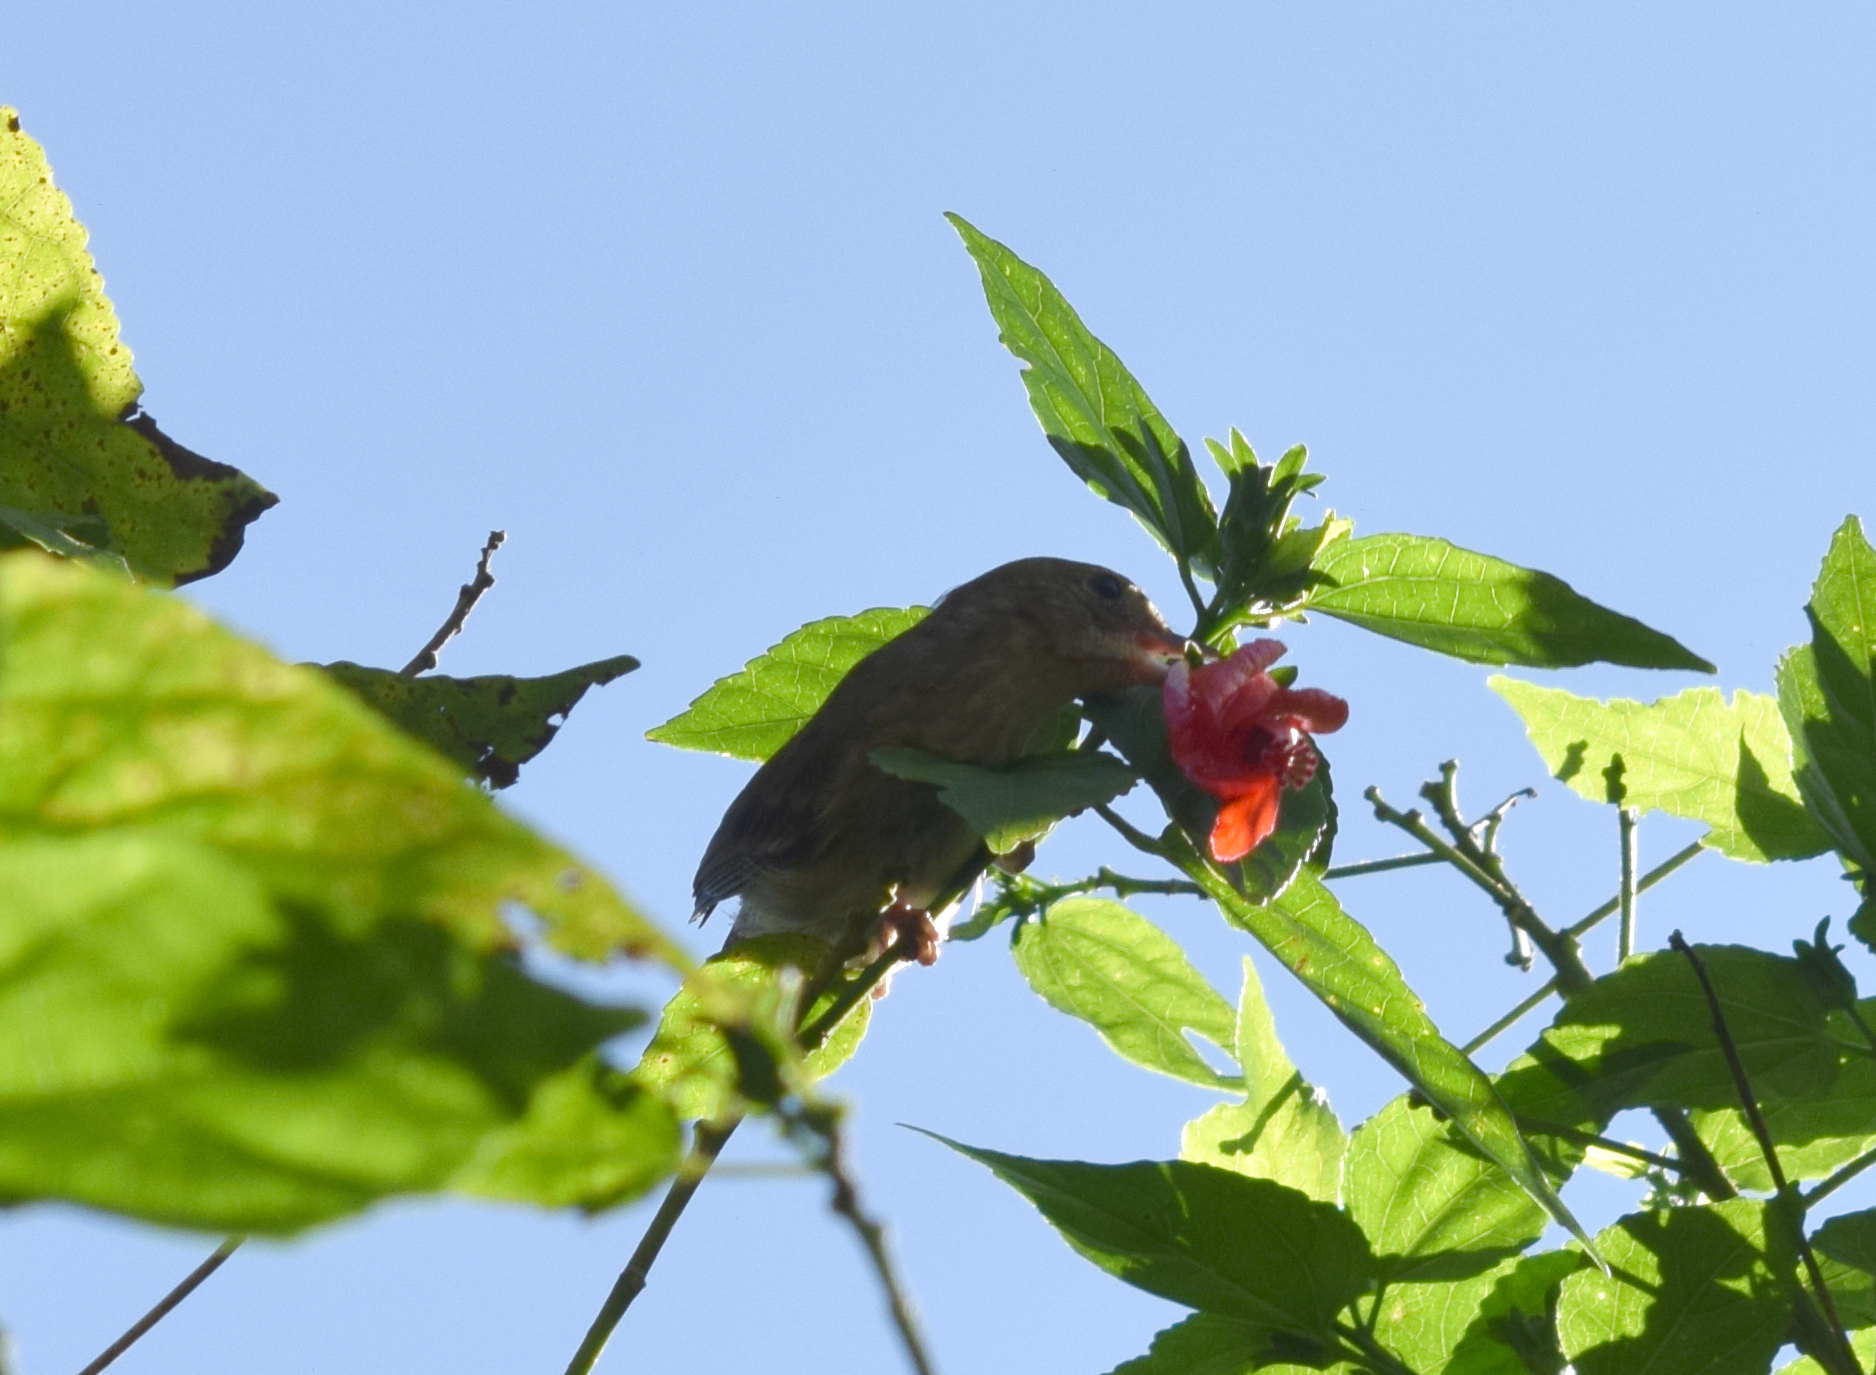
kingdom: Animalia
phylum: Chordata
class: Aves
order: Passeriformes
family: Thraupidae
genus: Diglossa
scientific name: Diglossa sittoides
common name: Rusty flowerpiercer
